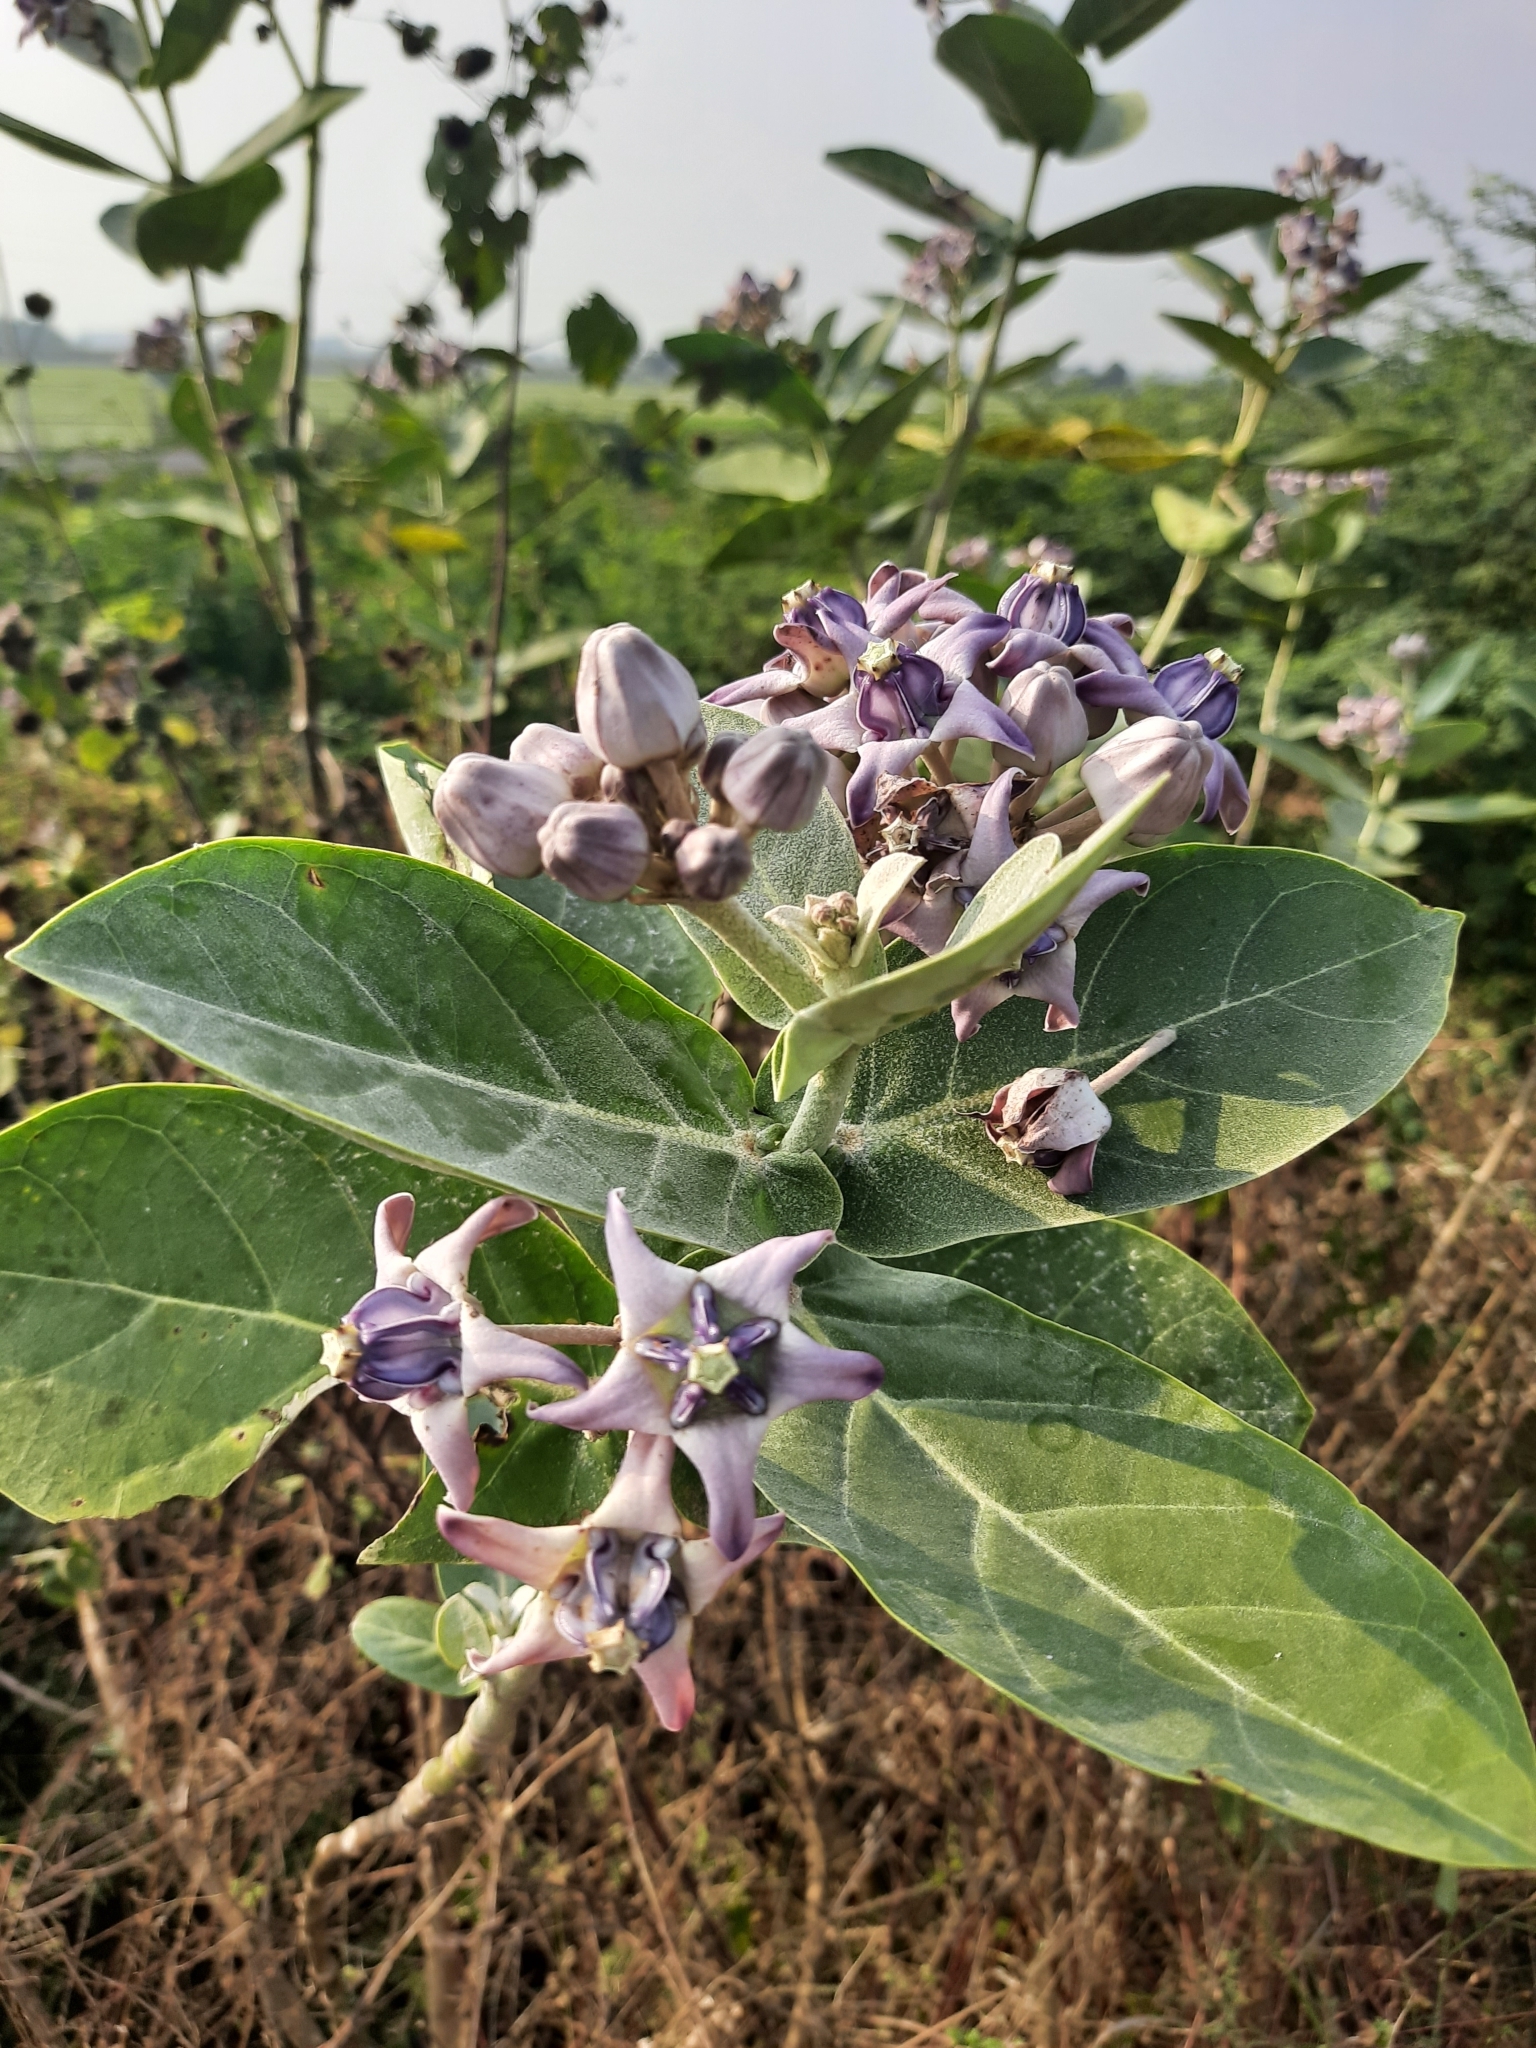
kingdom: Plantae
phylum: Tracheophyta
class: Magnoliopsida
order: Gentianales
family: Apocynaceae
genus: Calotropis
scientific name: Calotropis gigantea
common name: Crown flower
